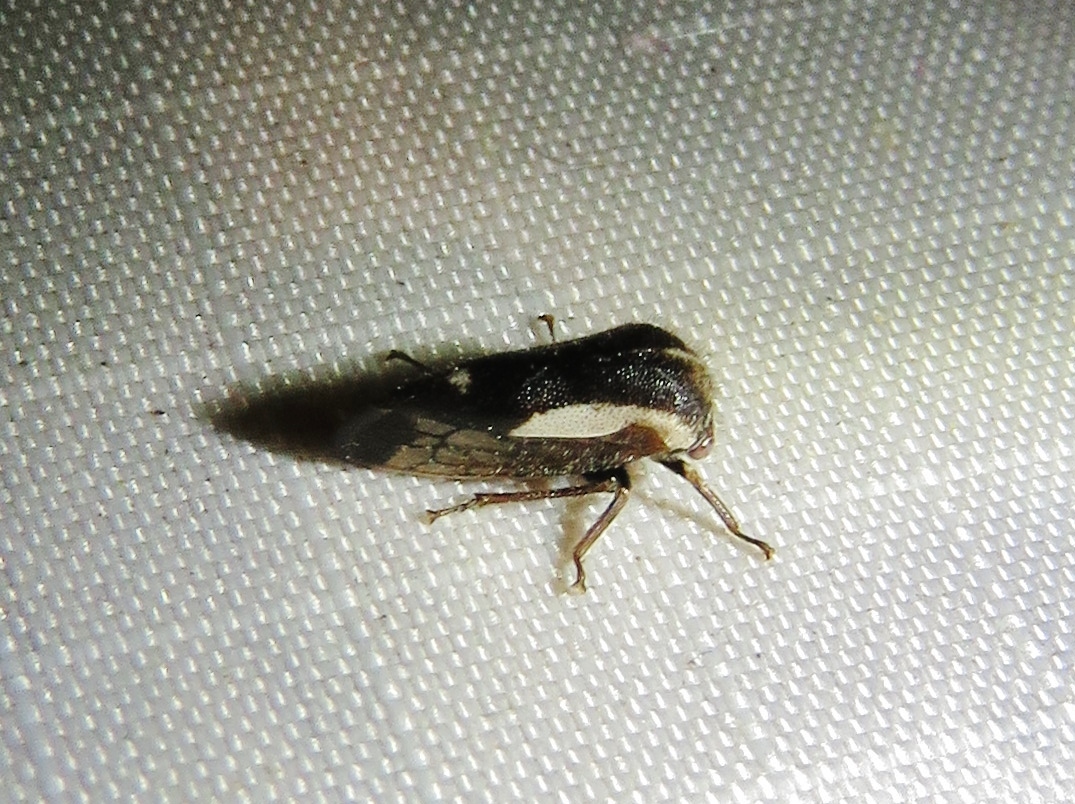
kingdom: Animalia
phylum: Arthropoda
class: Insecta
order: Hemiptera
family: Membracidae
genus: Ophiderma
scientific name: Ophiderma flavicephala
